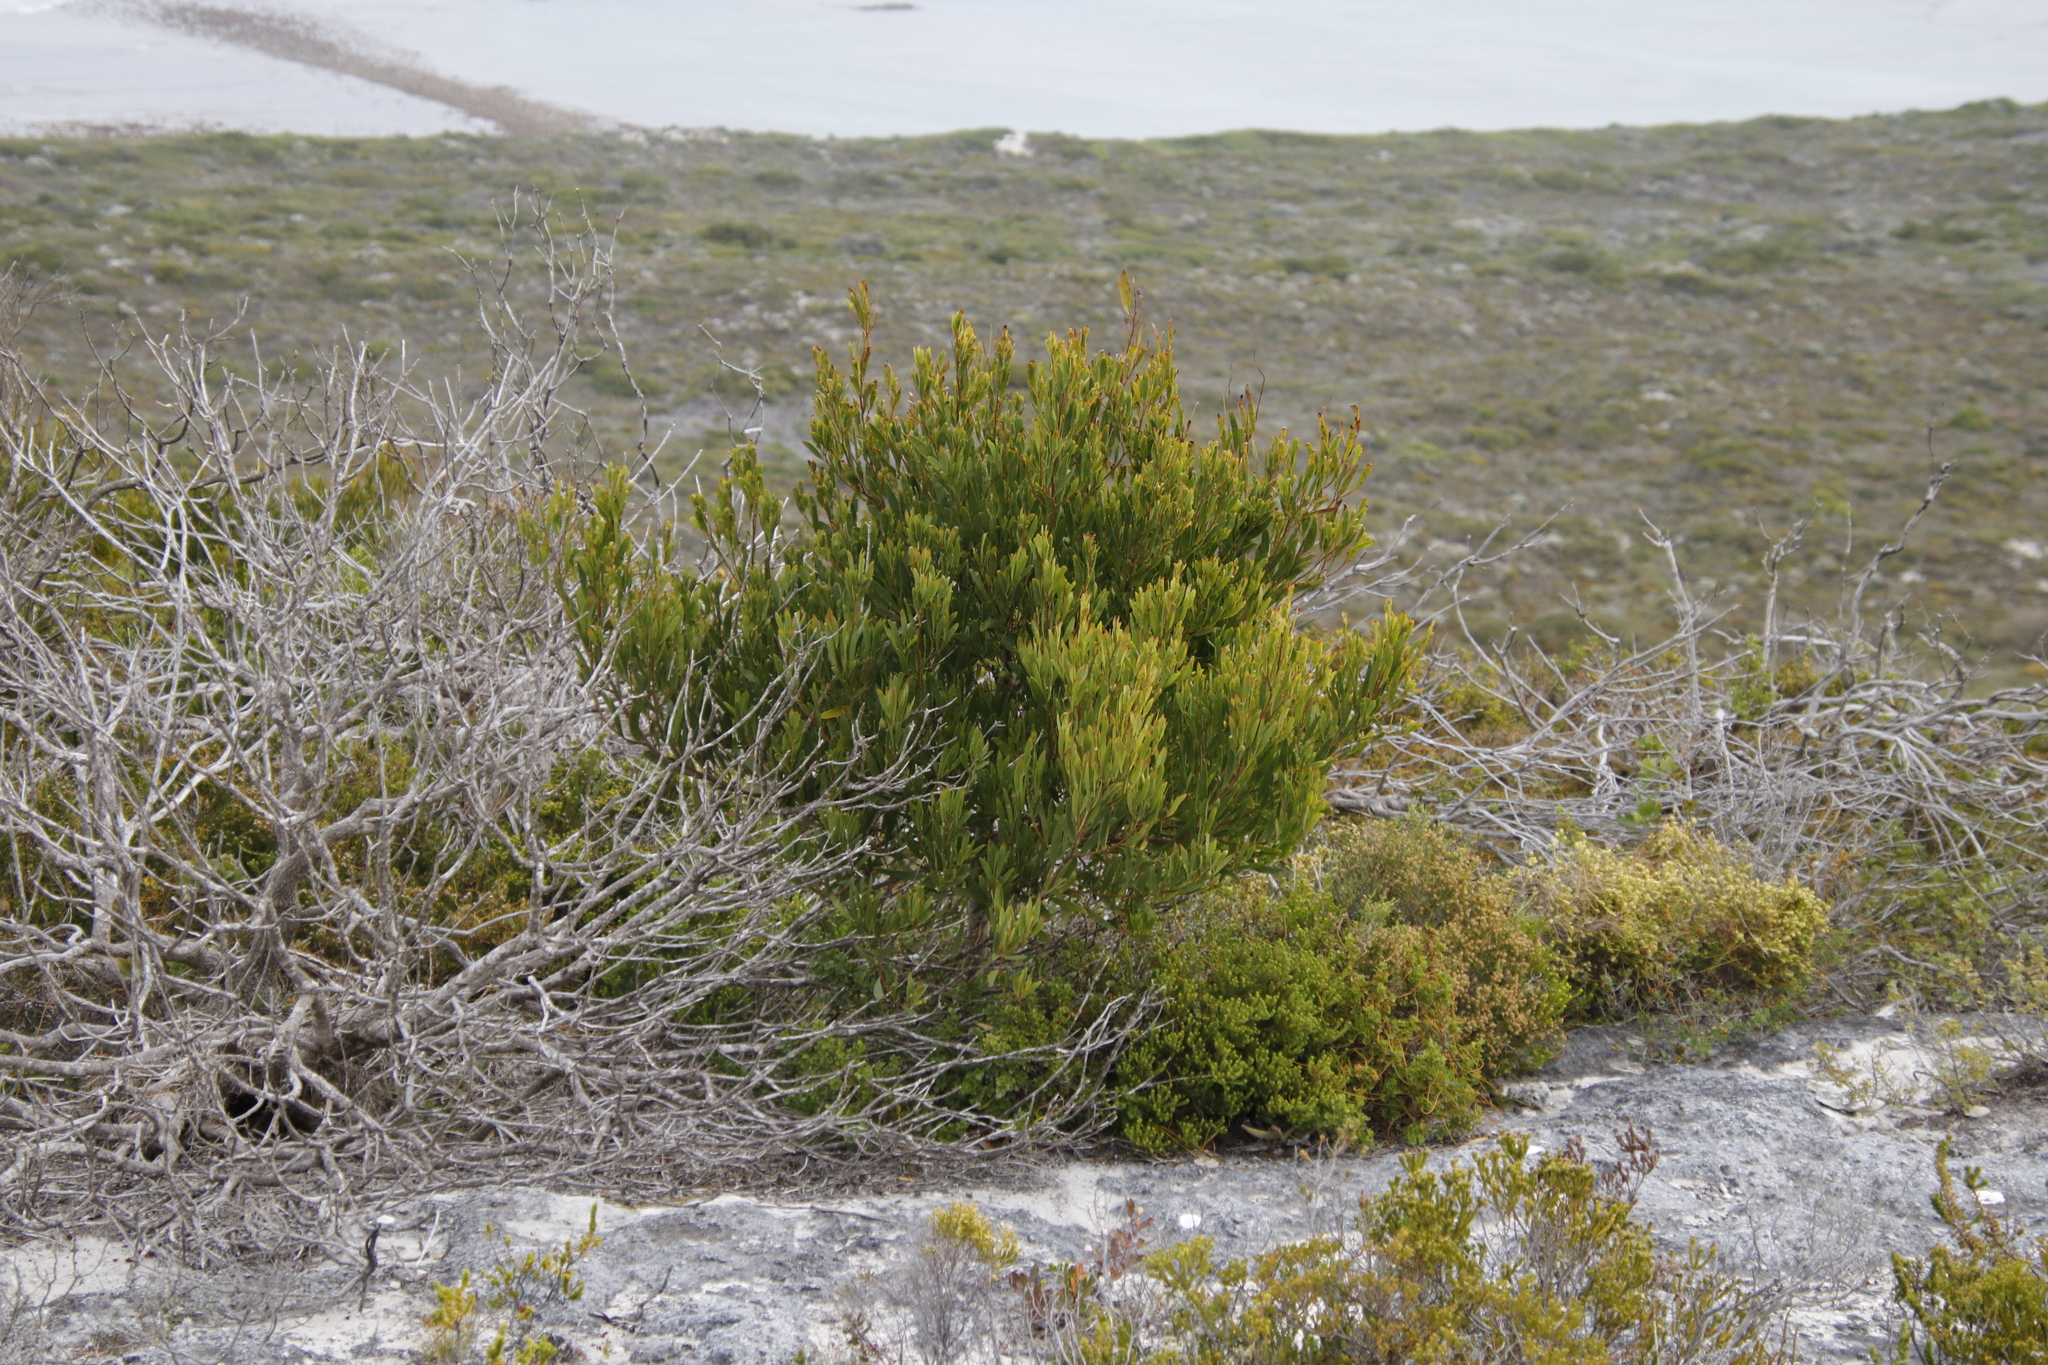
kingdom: Plantae
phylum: Tracheophyta
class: Magnoliopsida
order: Fabales
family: Fabaceae
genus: Acacia
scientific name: Acacia cyclops
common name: Coastal wattle
